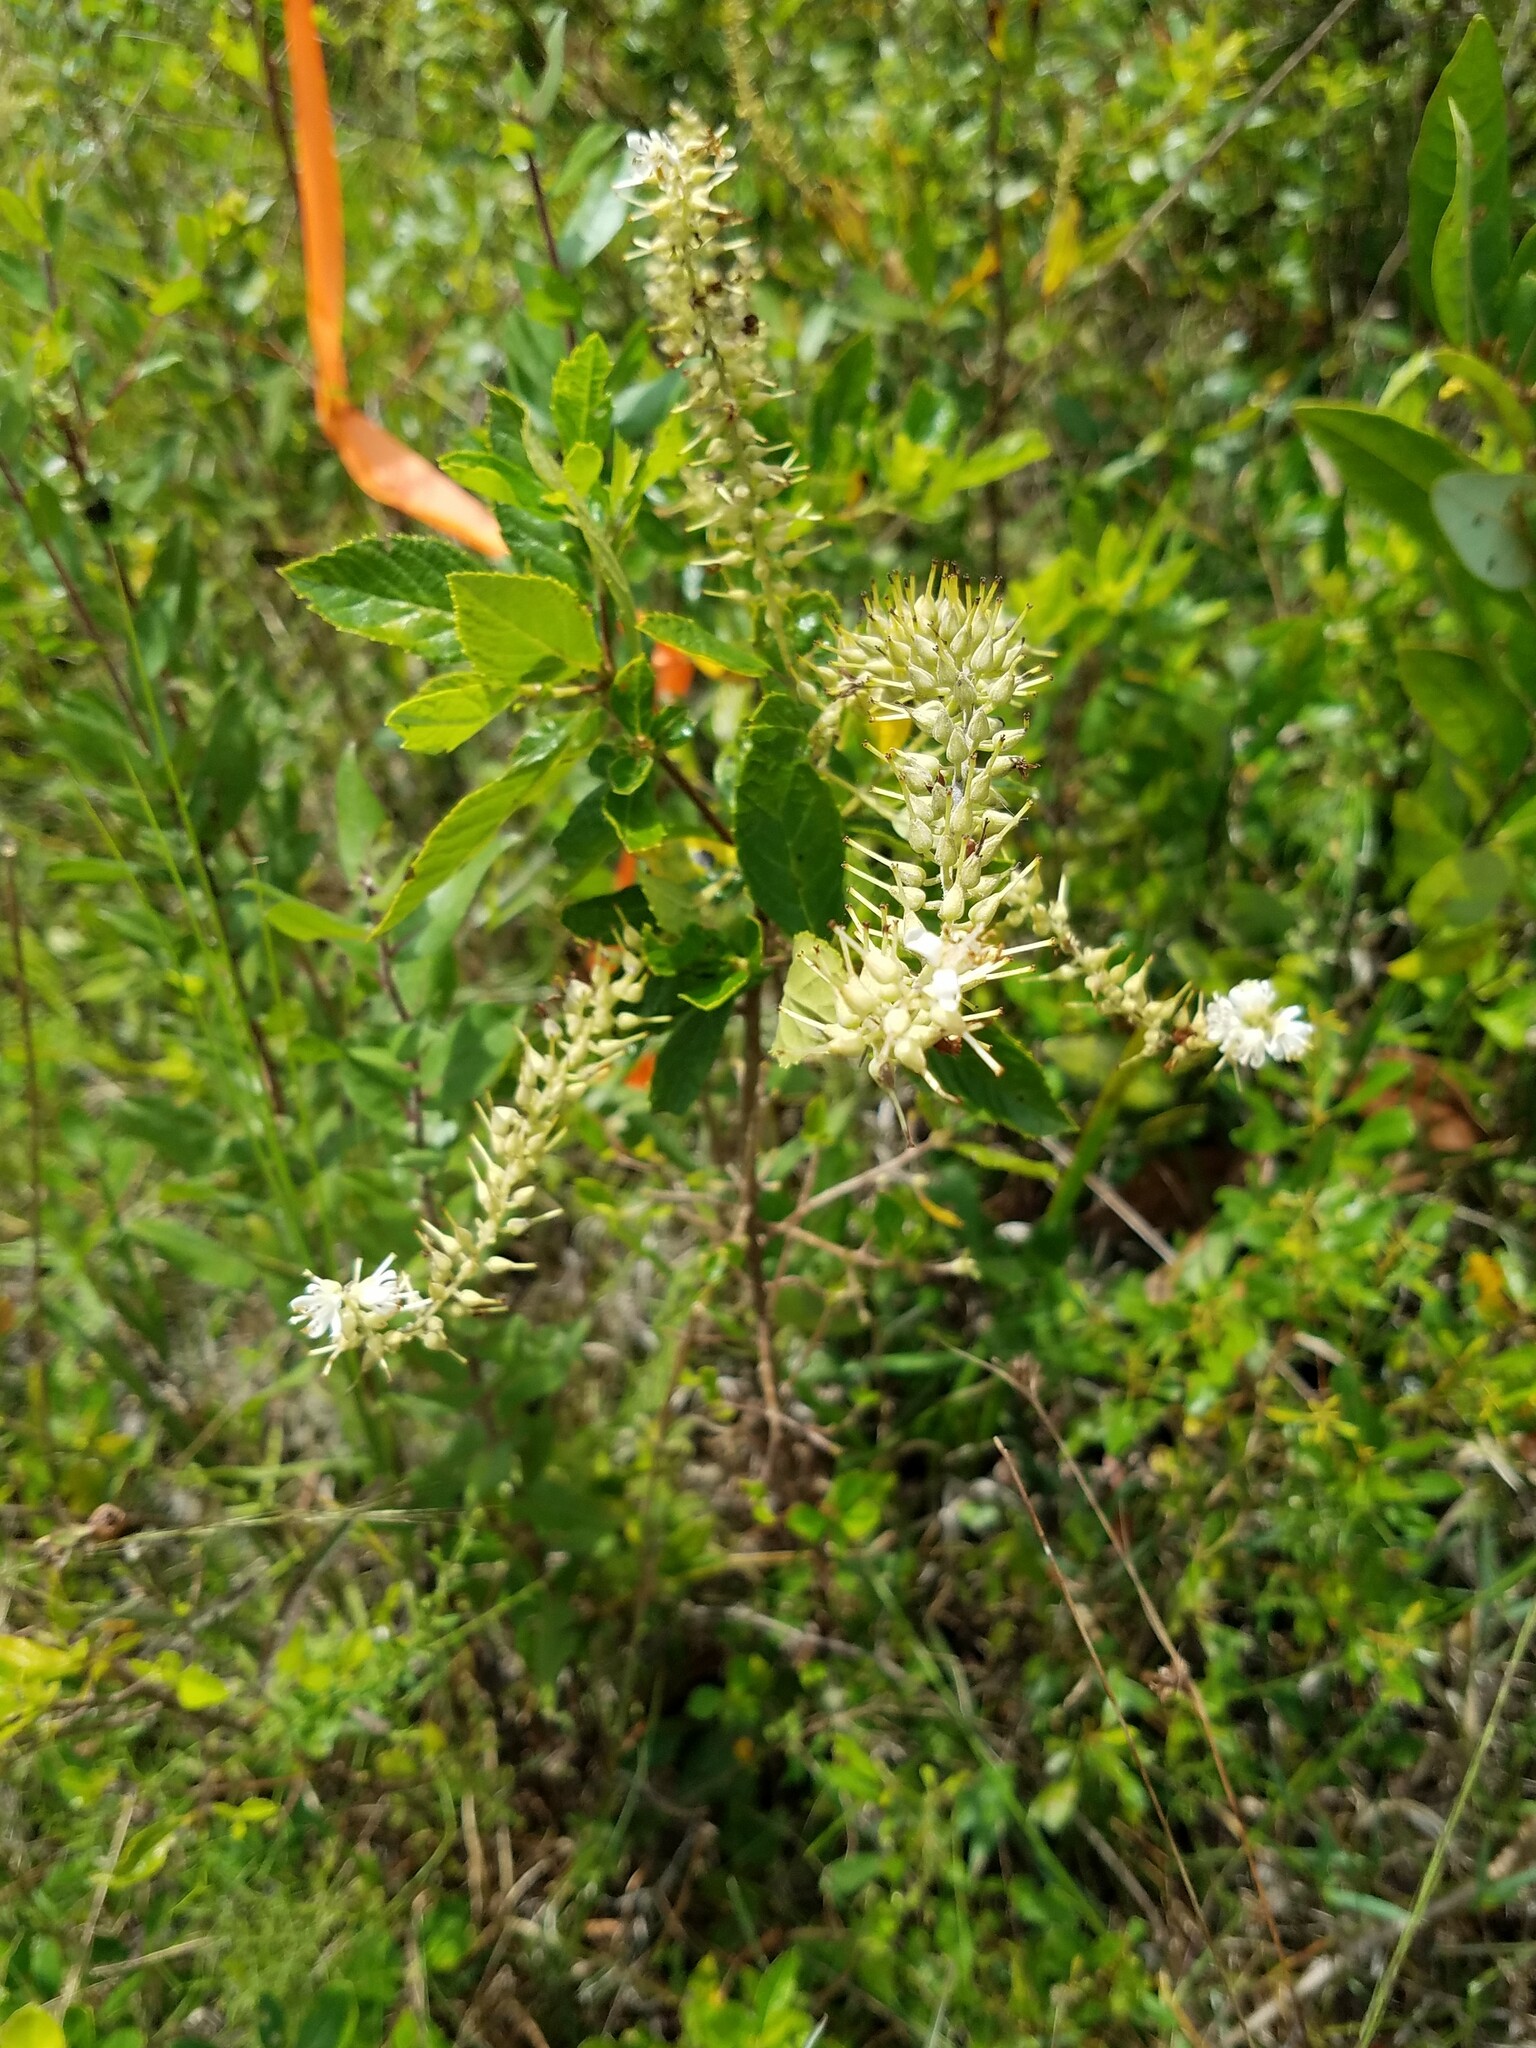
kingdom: Plantae
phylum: Tracheophyta
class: Magnoliopsida
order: Ericales
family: Clethraceae
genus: Clethra
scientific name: Clethra alnifolia
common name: Sweet pepperbush
